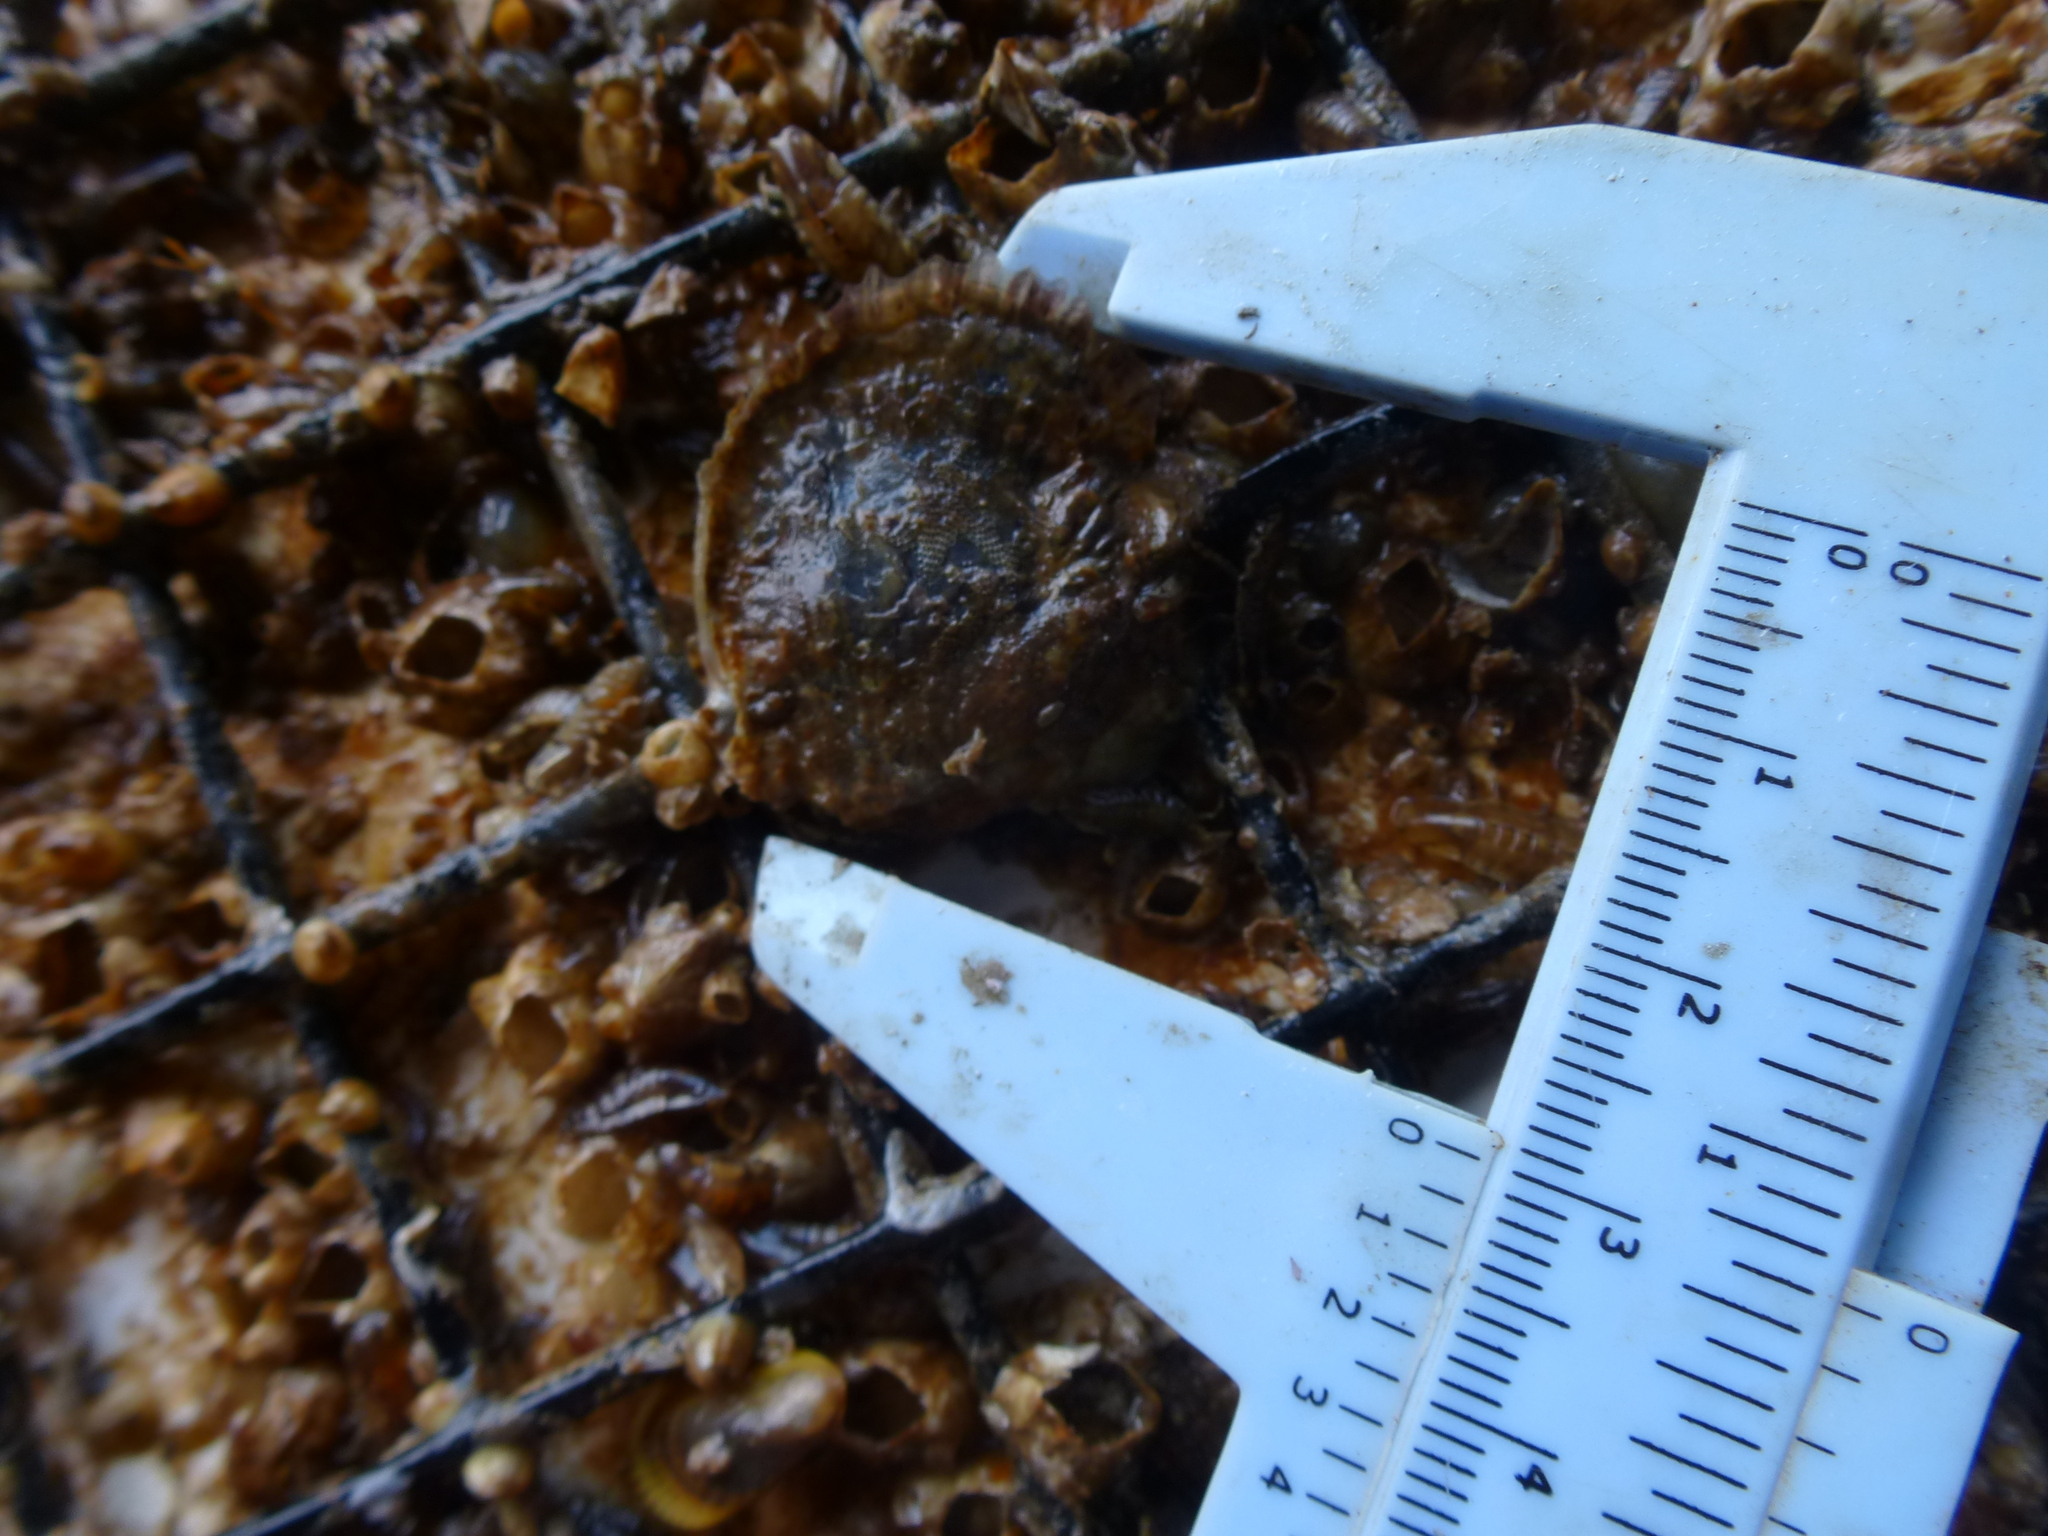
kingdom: Animalia
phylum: Mollusca
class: Bivalvia
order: Ostreida
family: Ostreidae
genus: Crassostrea
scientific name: Crassostrea virginica
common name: American oyster
